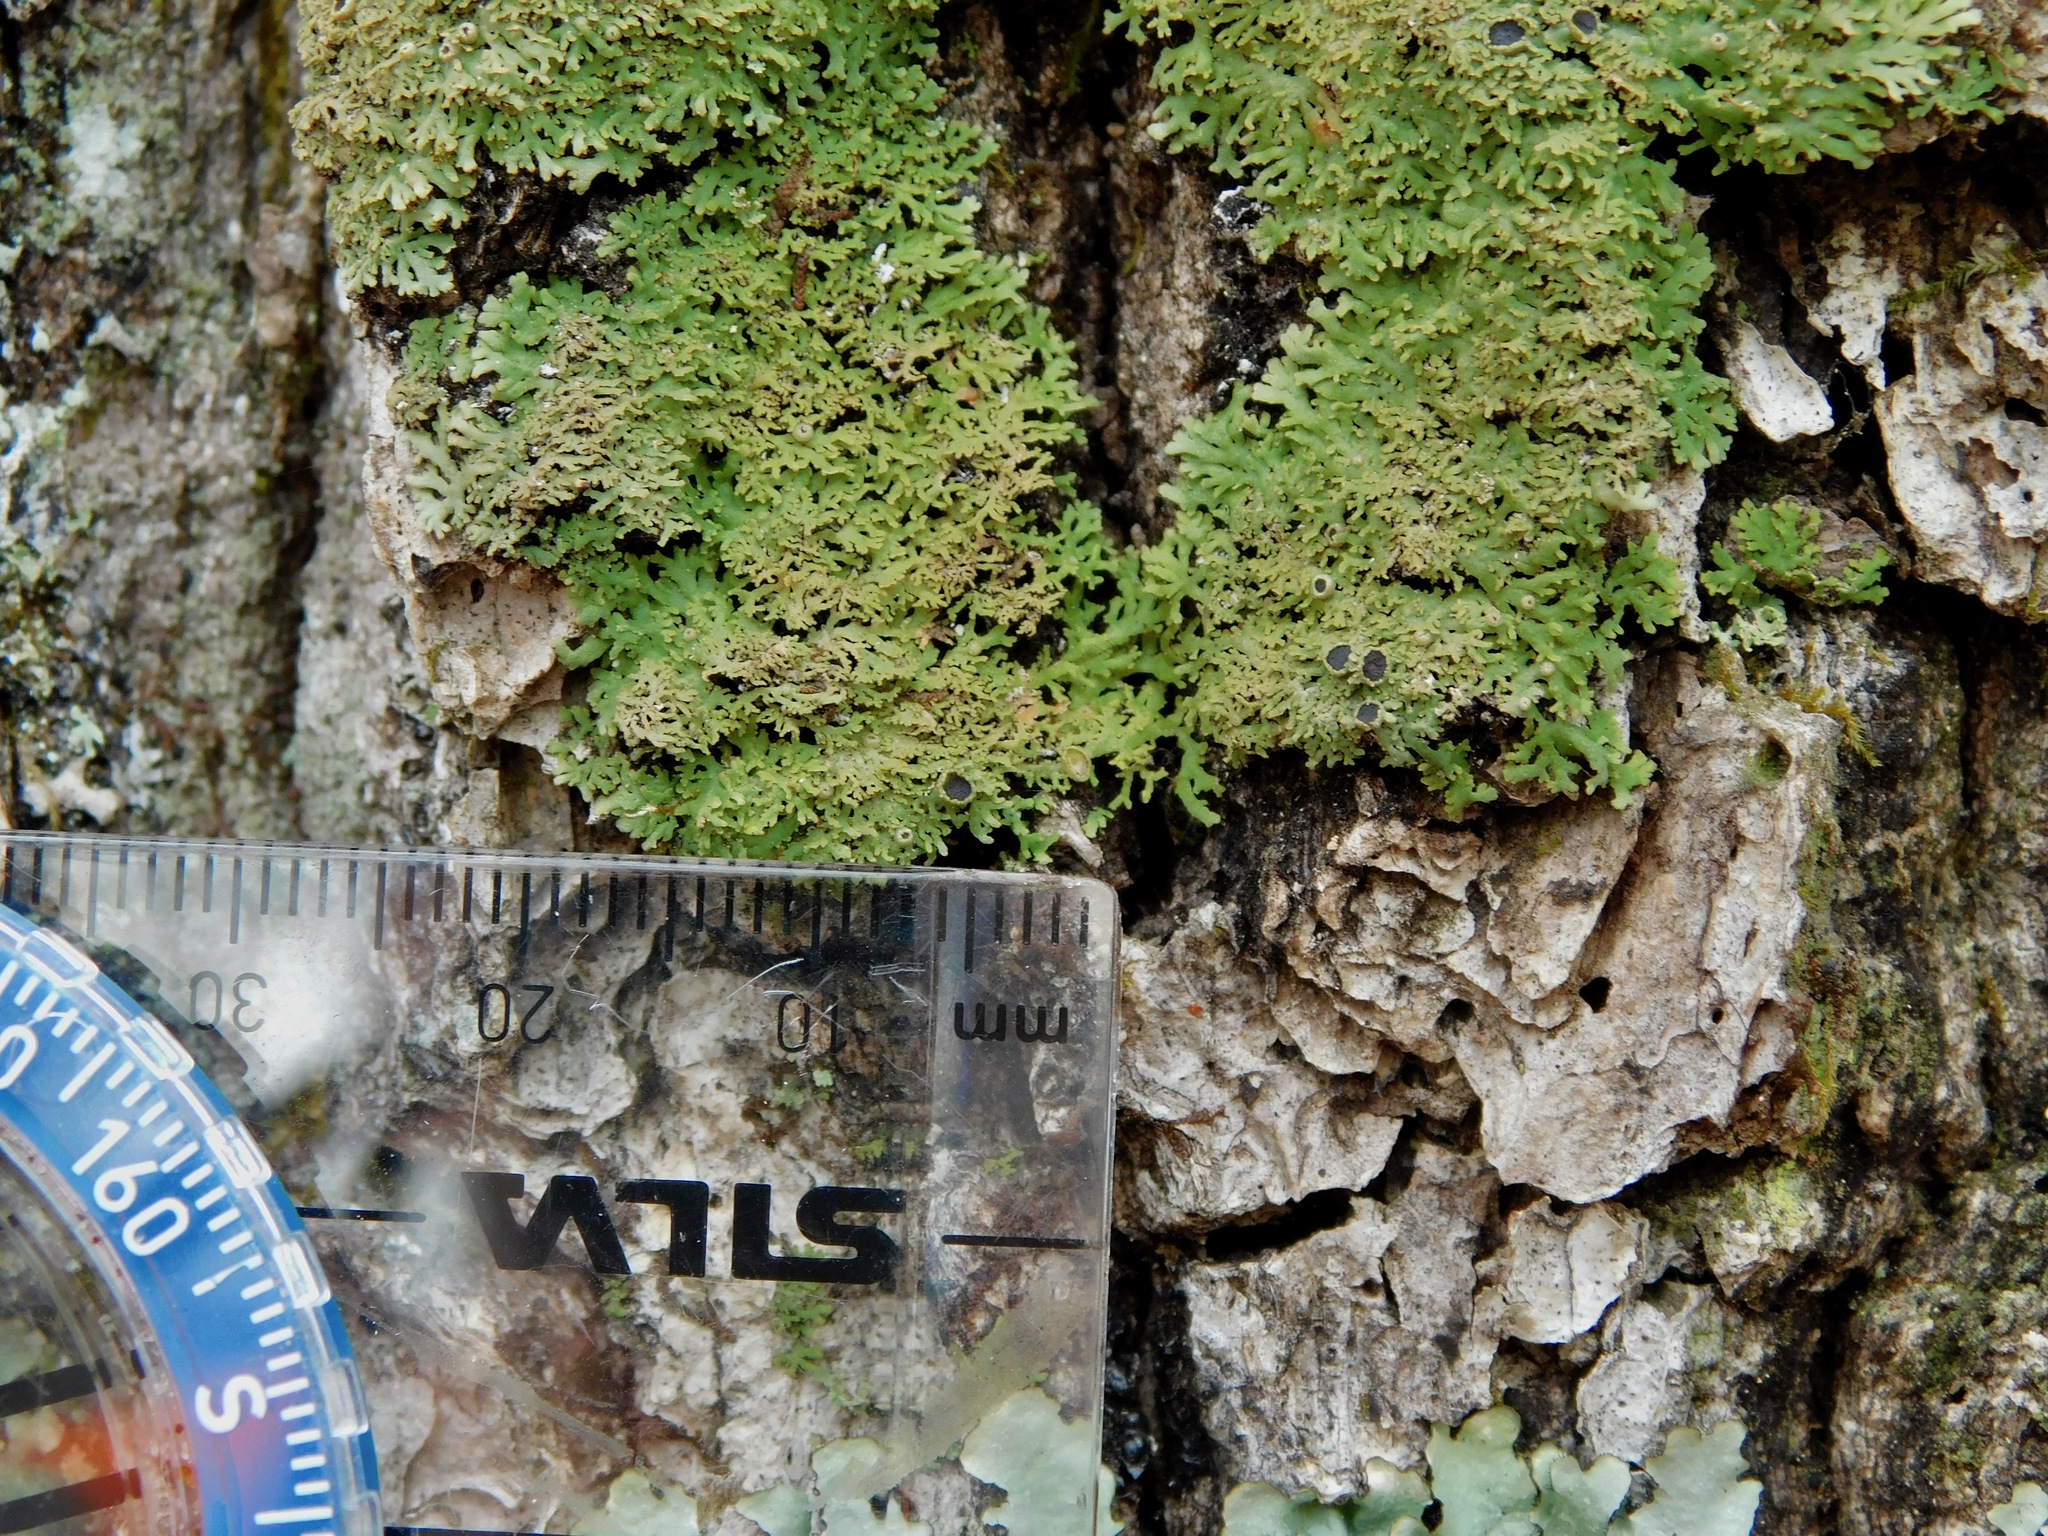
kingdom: Fungi
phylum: Ascomycota
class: Lecanoromycetes
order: Caliciales
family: Physciaceae
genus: Kurokawia
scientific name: Kurokawia palmulata
